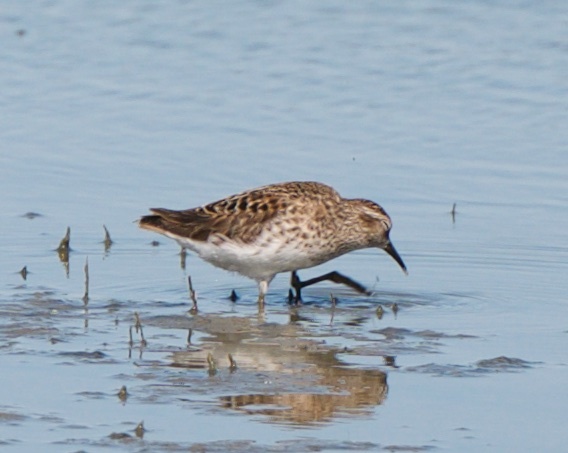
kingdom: Animalia
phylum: Chordata
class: Aves
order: Charadriiformes
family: Scolopacidae
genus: Calidris
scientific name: Calidris mauri
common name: Western sandpiper
